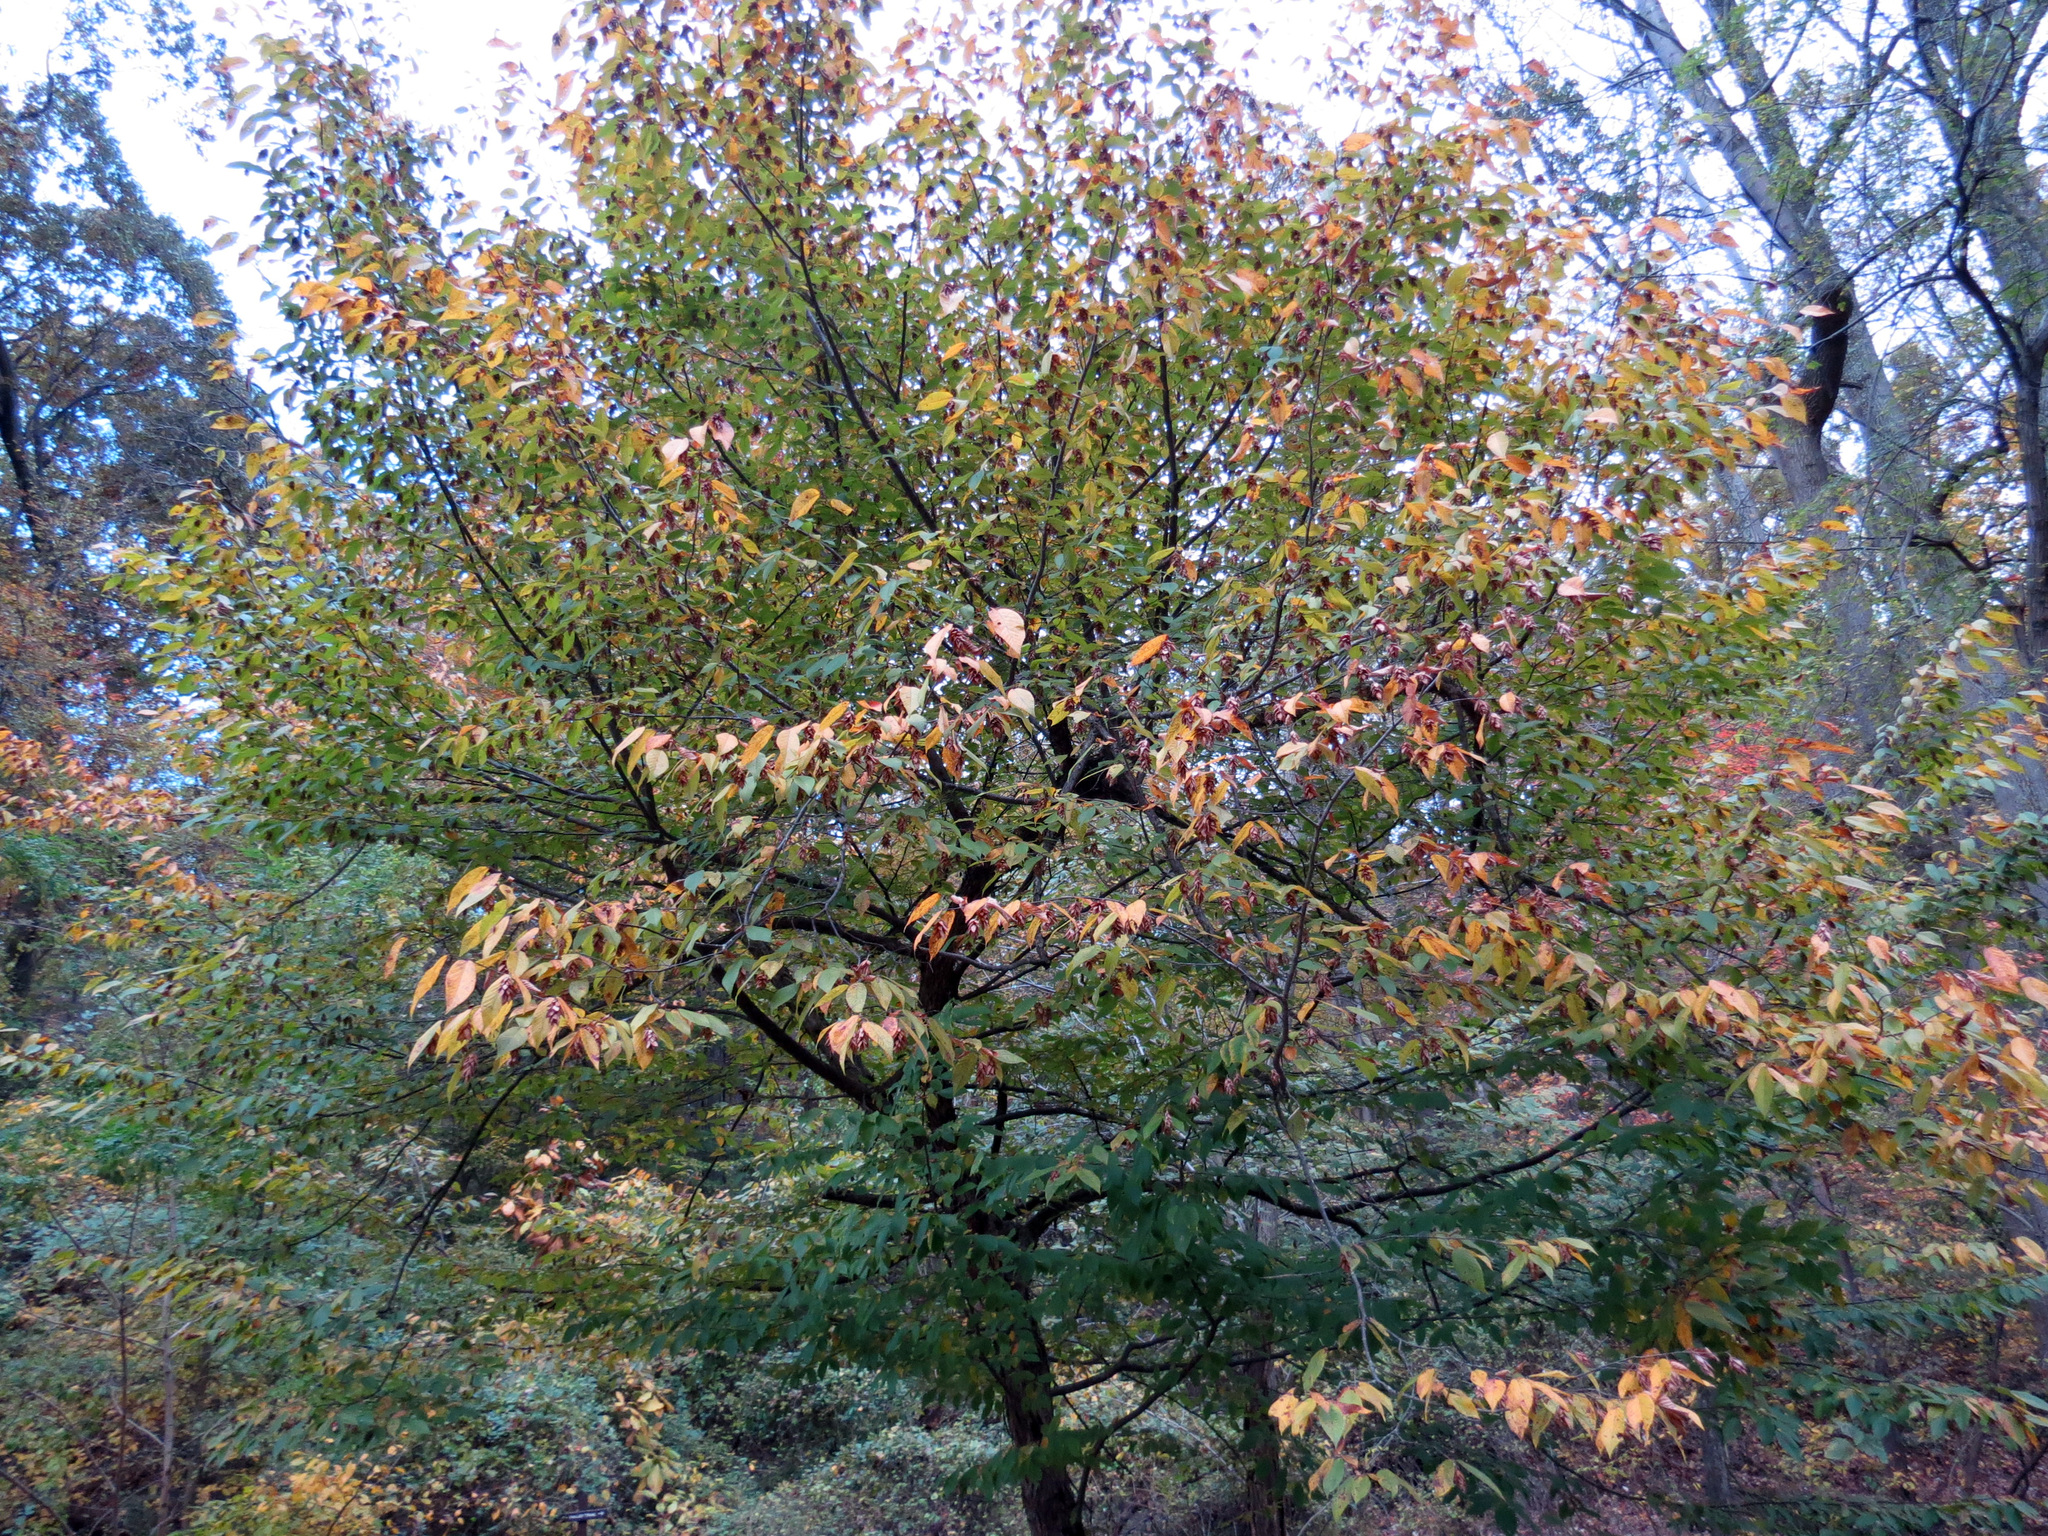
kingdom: Plantae
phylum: Tracheophyta
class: Magnoliopsida
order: Fagales
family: Betulaceae
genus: Ostrya
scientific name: Ostrya virginiana
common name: Ironwood
